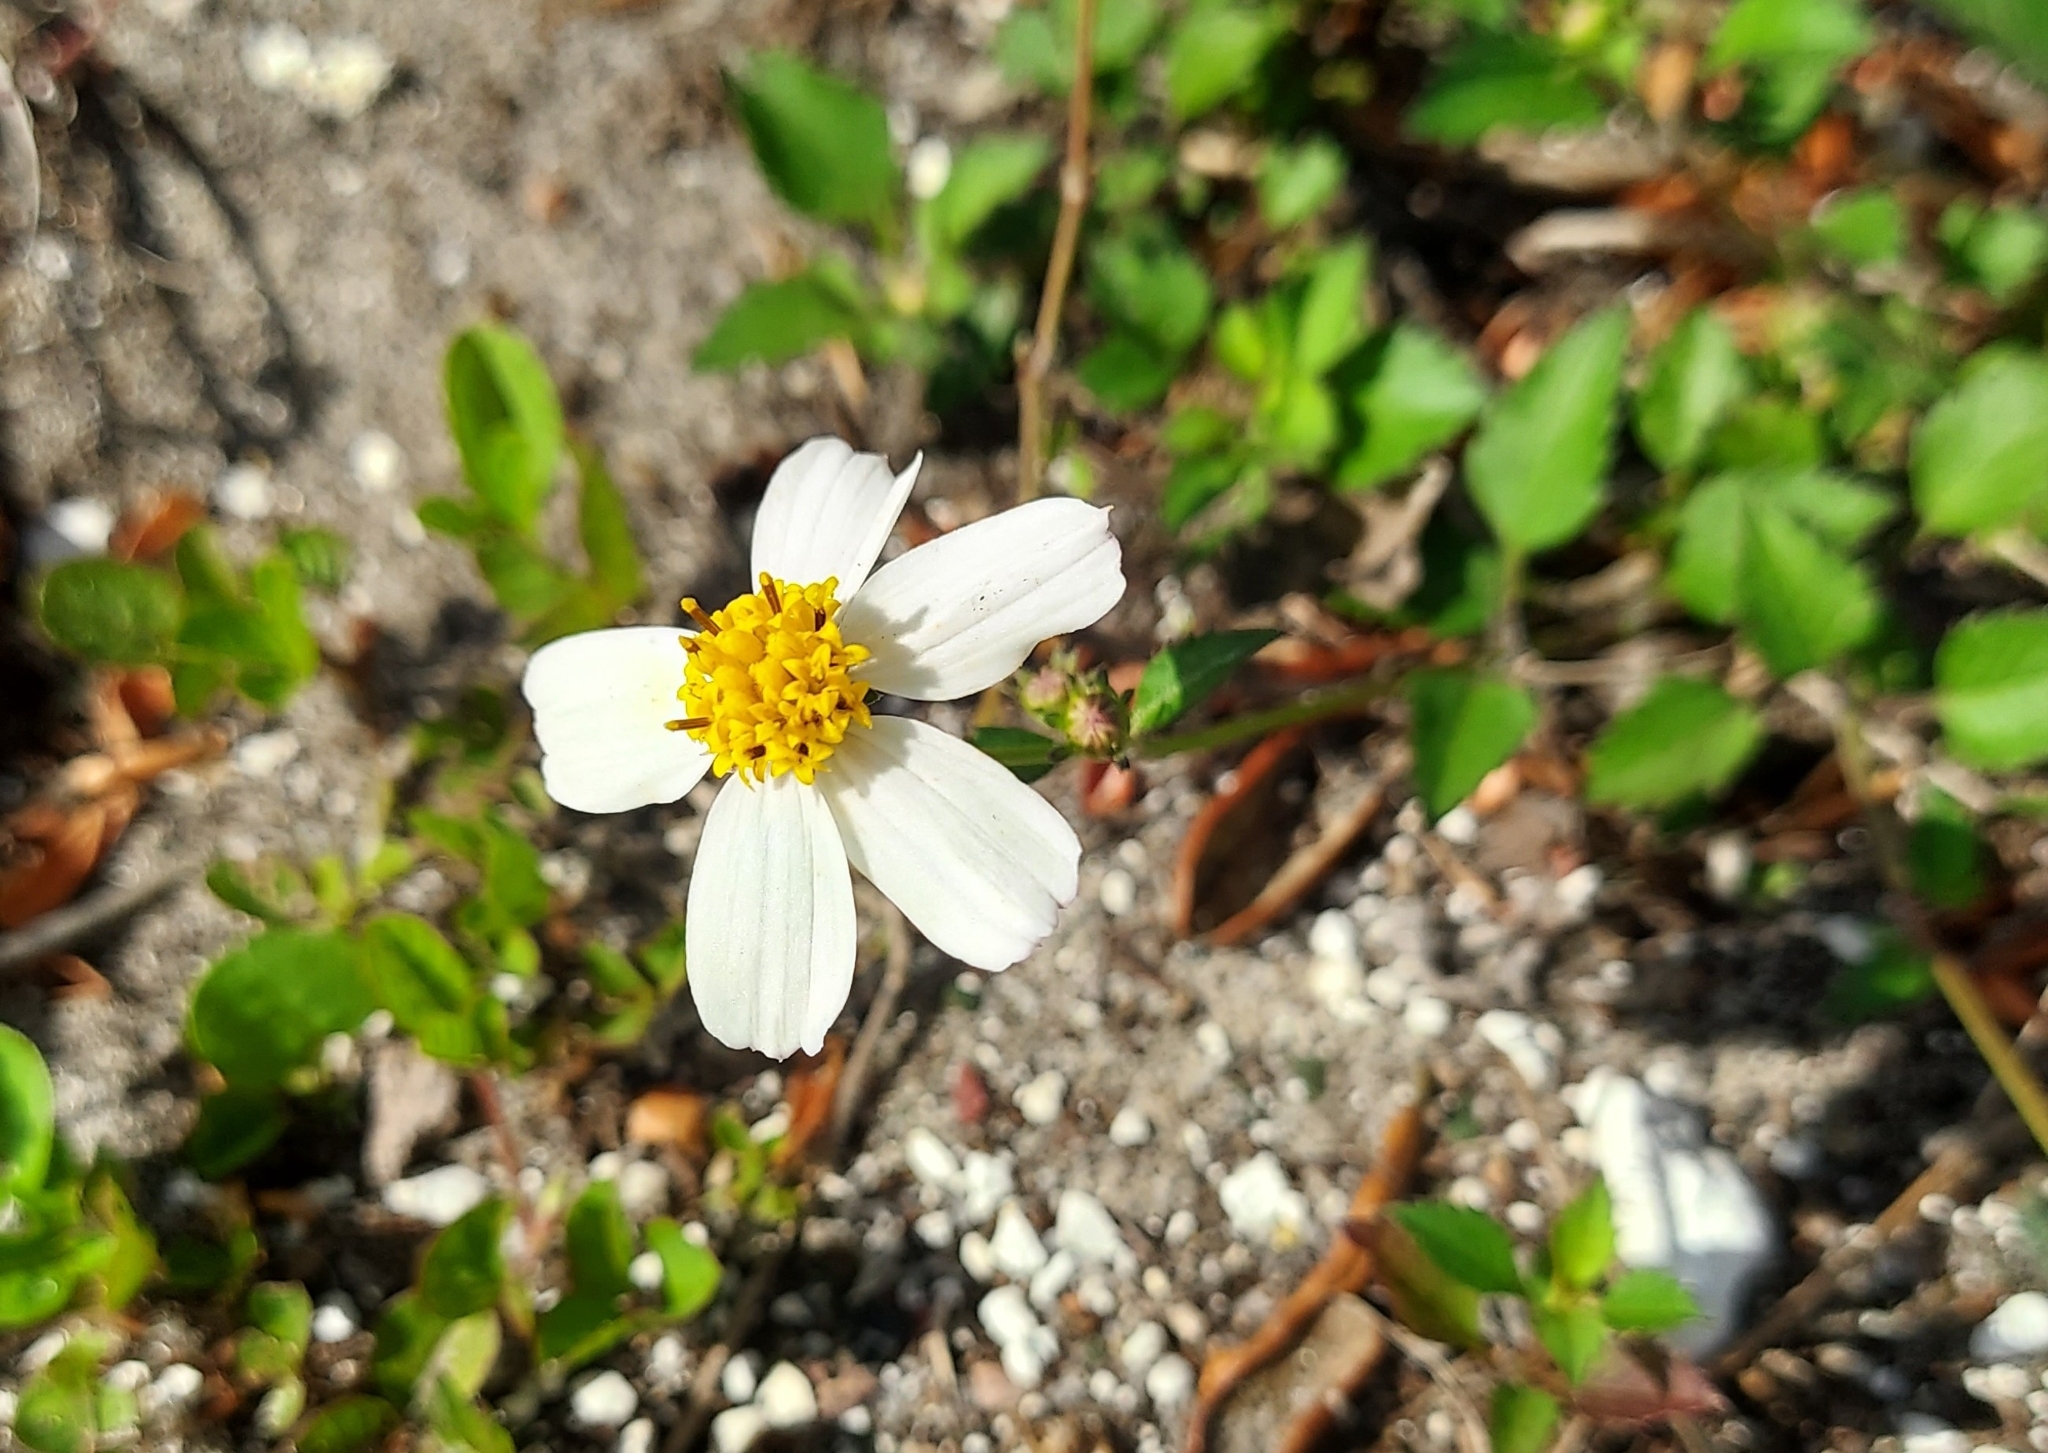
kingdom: Plantae
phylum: Tracheophyta
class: Magnoliopsida
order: Asterales
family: Asteraceae
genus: Bidens
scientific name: Bidens alba
